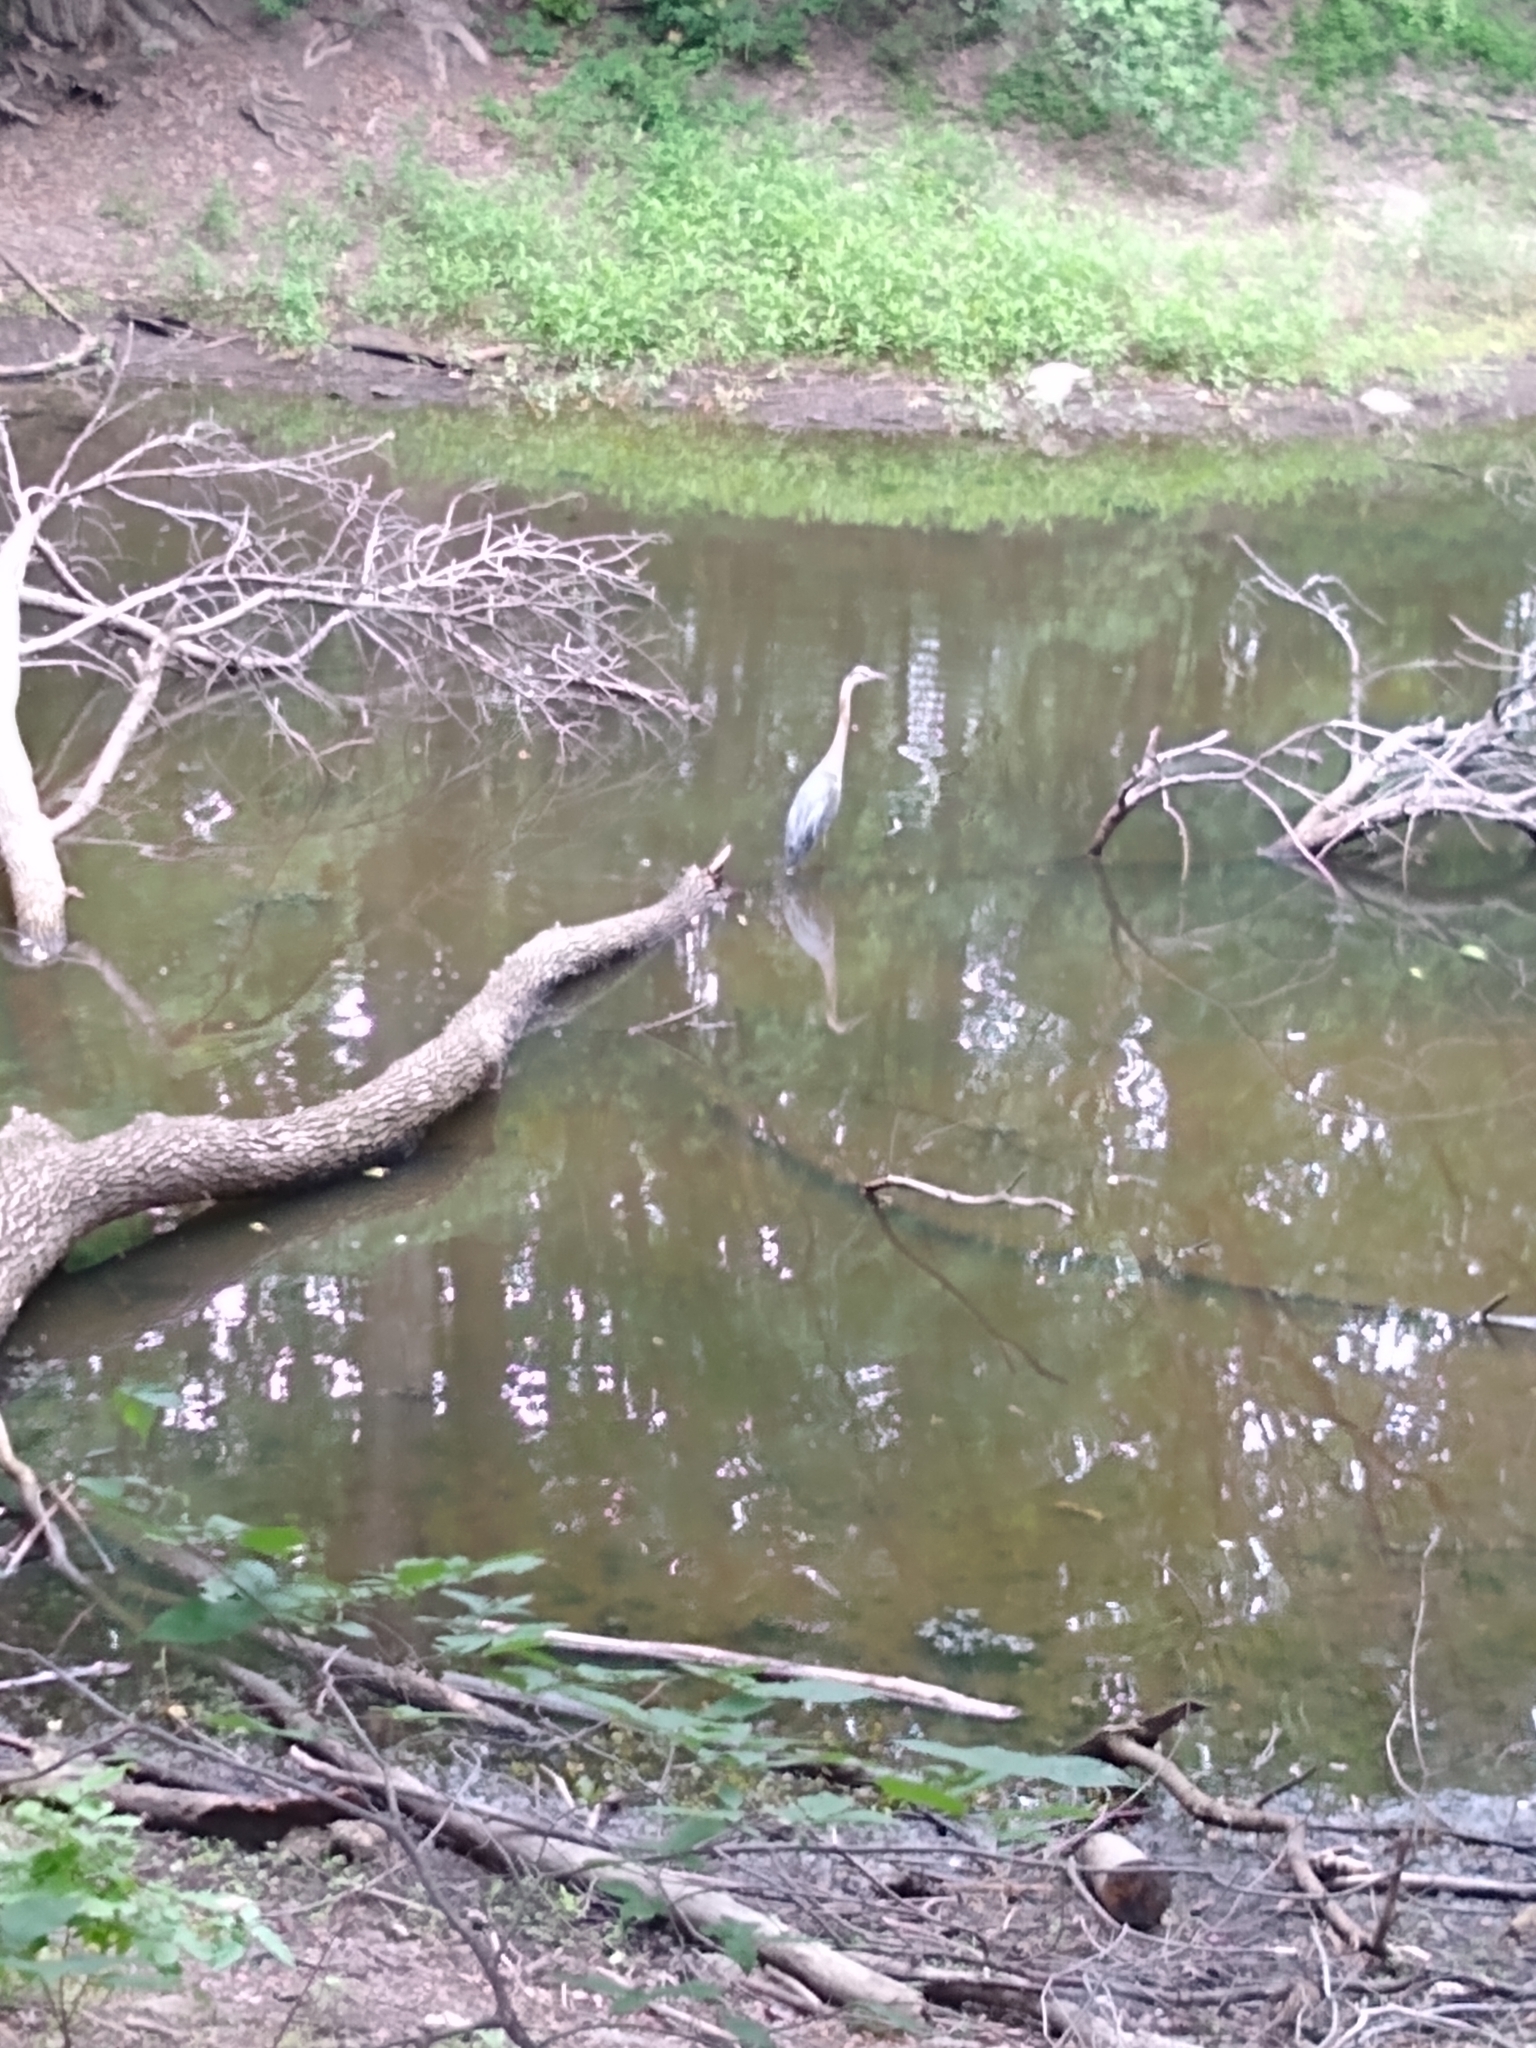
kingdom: Animalia
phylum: Chordata
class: Aves
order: Pelecaniformes
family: Ardeidae
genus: Ardea
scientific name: Ardea herodias
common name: Great blue heron
